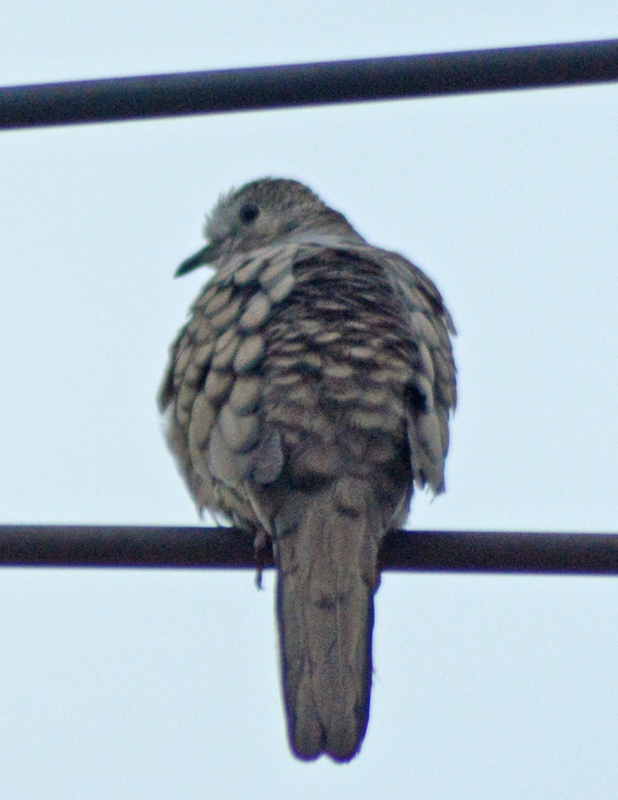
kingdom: Animalia
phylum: Chordata
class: Aves
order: Columbiformes
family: Columbidae
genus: Columbina
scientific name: Columbina inca
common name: Inca dove
